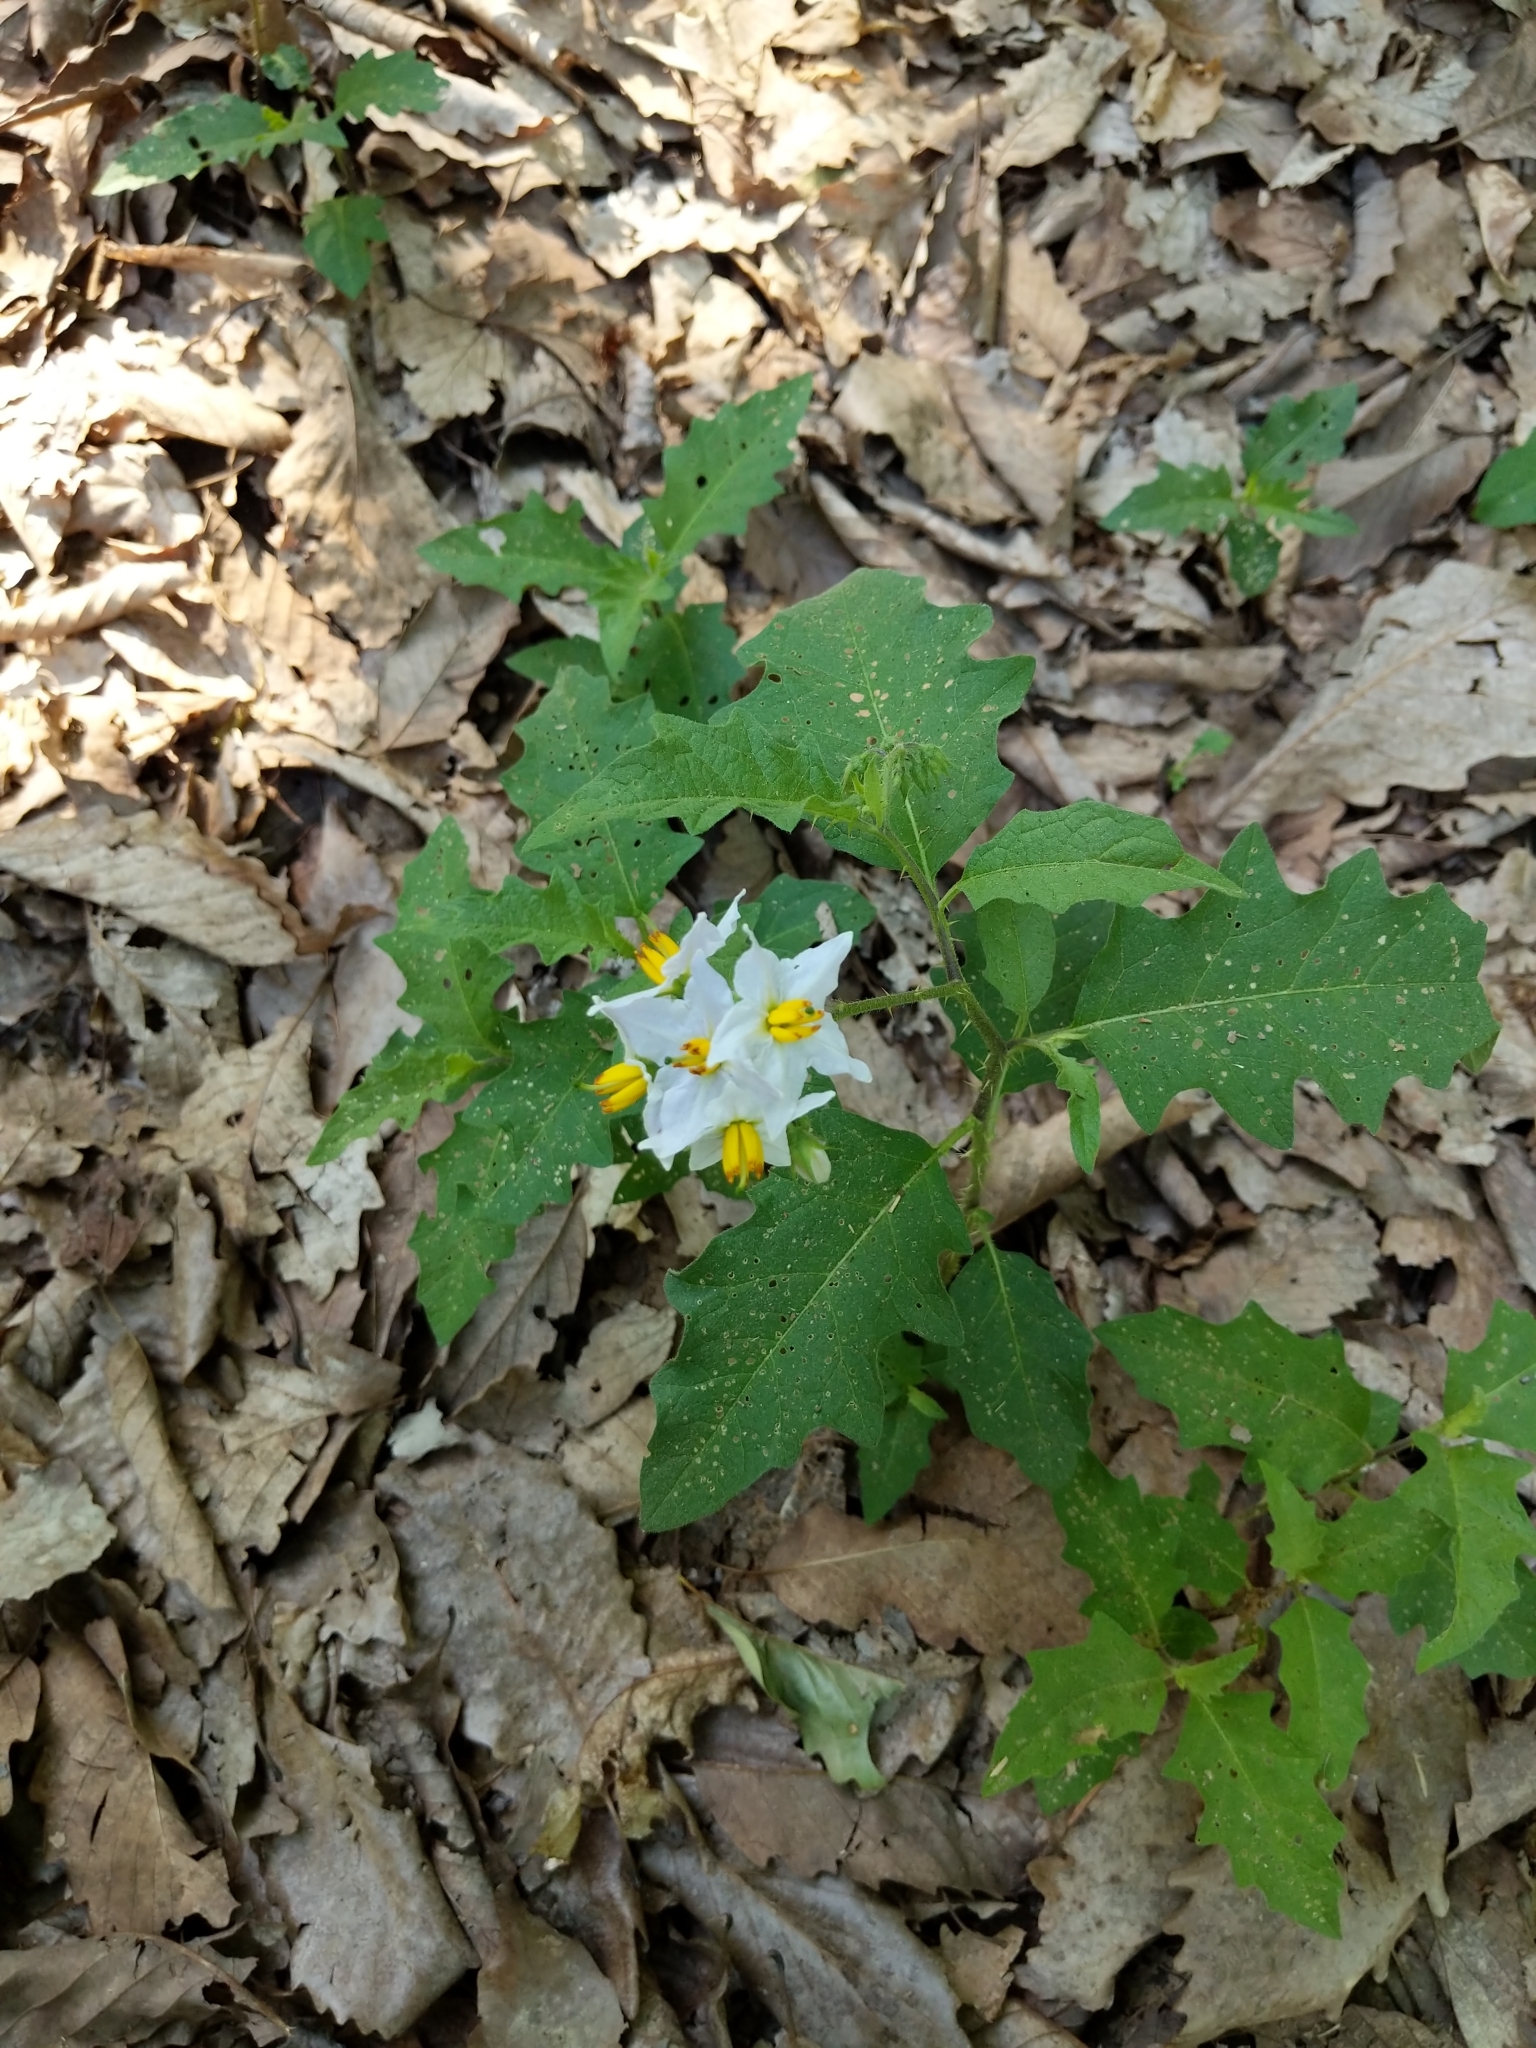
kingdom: Plantae
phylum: Tracheophyta
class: Magnoliopsida
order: Solanales
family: Solanaceae
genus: Solanum
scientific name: Solanum carolinense
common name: Horse-nettle
